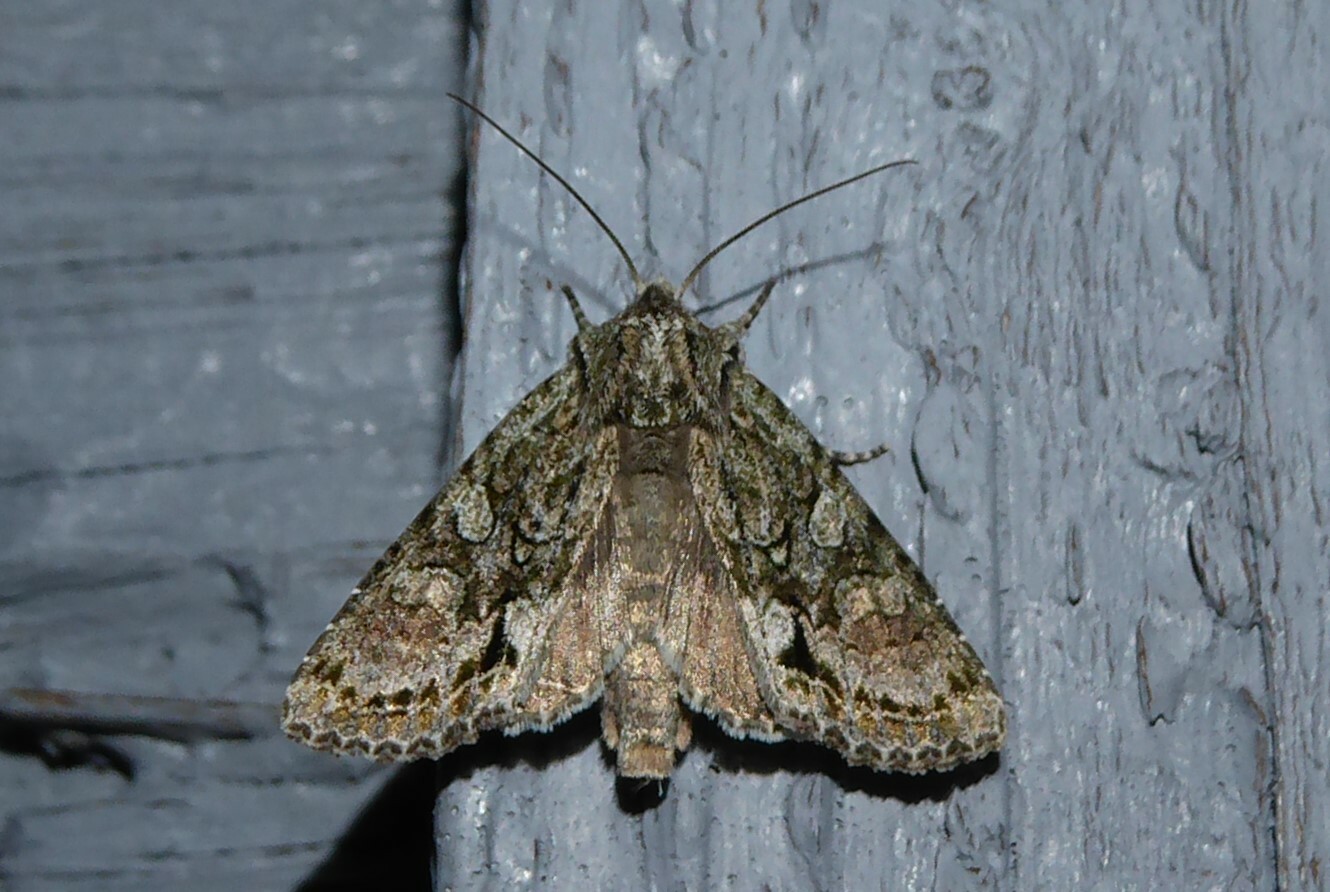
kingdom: Animalia
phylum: Arthropoda
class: Insecta
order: Lepidoptera
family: Noctuidae
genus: Ichneutica
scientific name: Ichneutica mutans
